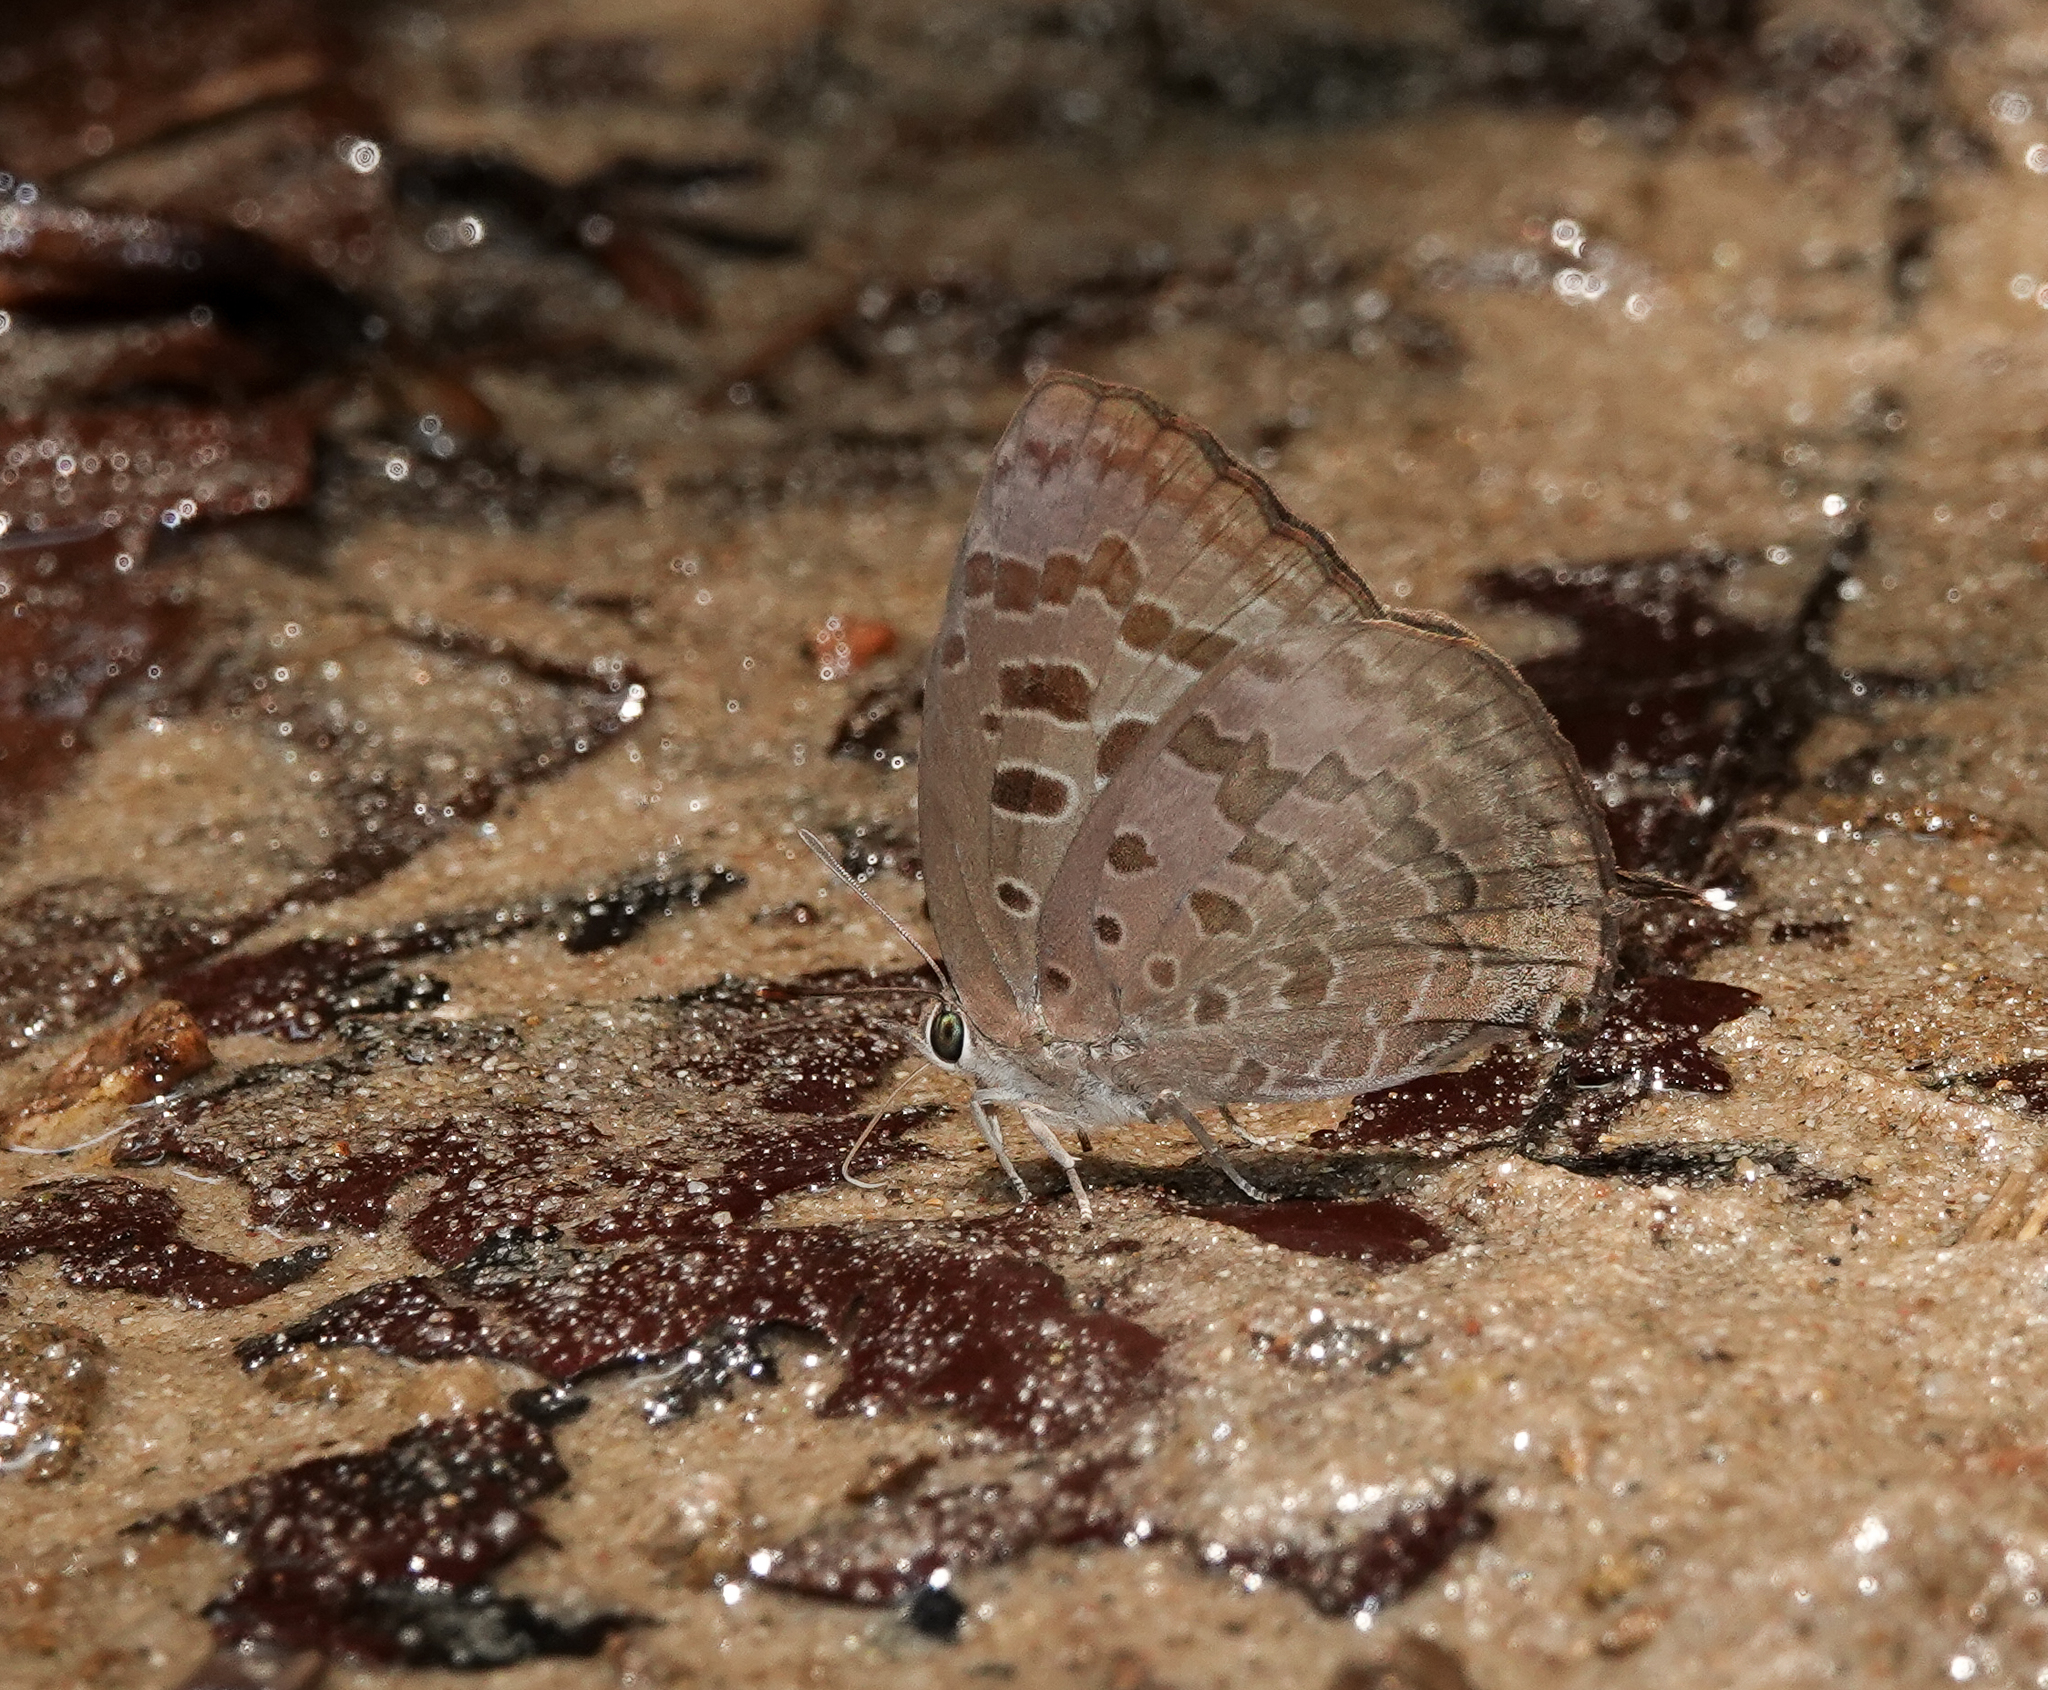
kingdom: Animalia
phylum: Arthropoda
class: Insecta
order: Lepidoptera
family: Lycaenidae
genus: Arhopala
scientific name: Arhopala eumolphus
